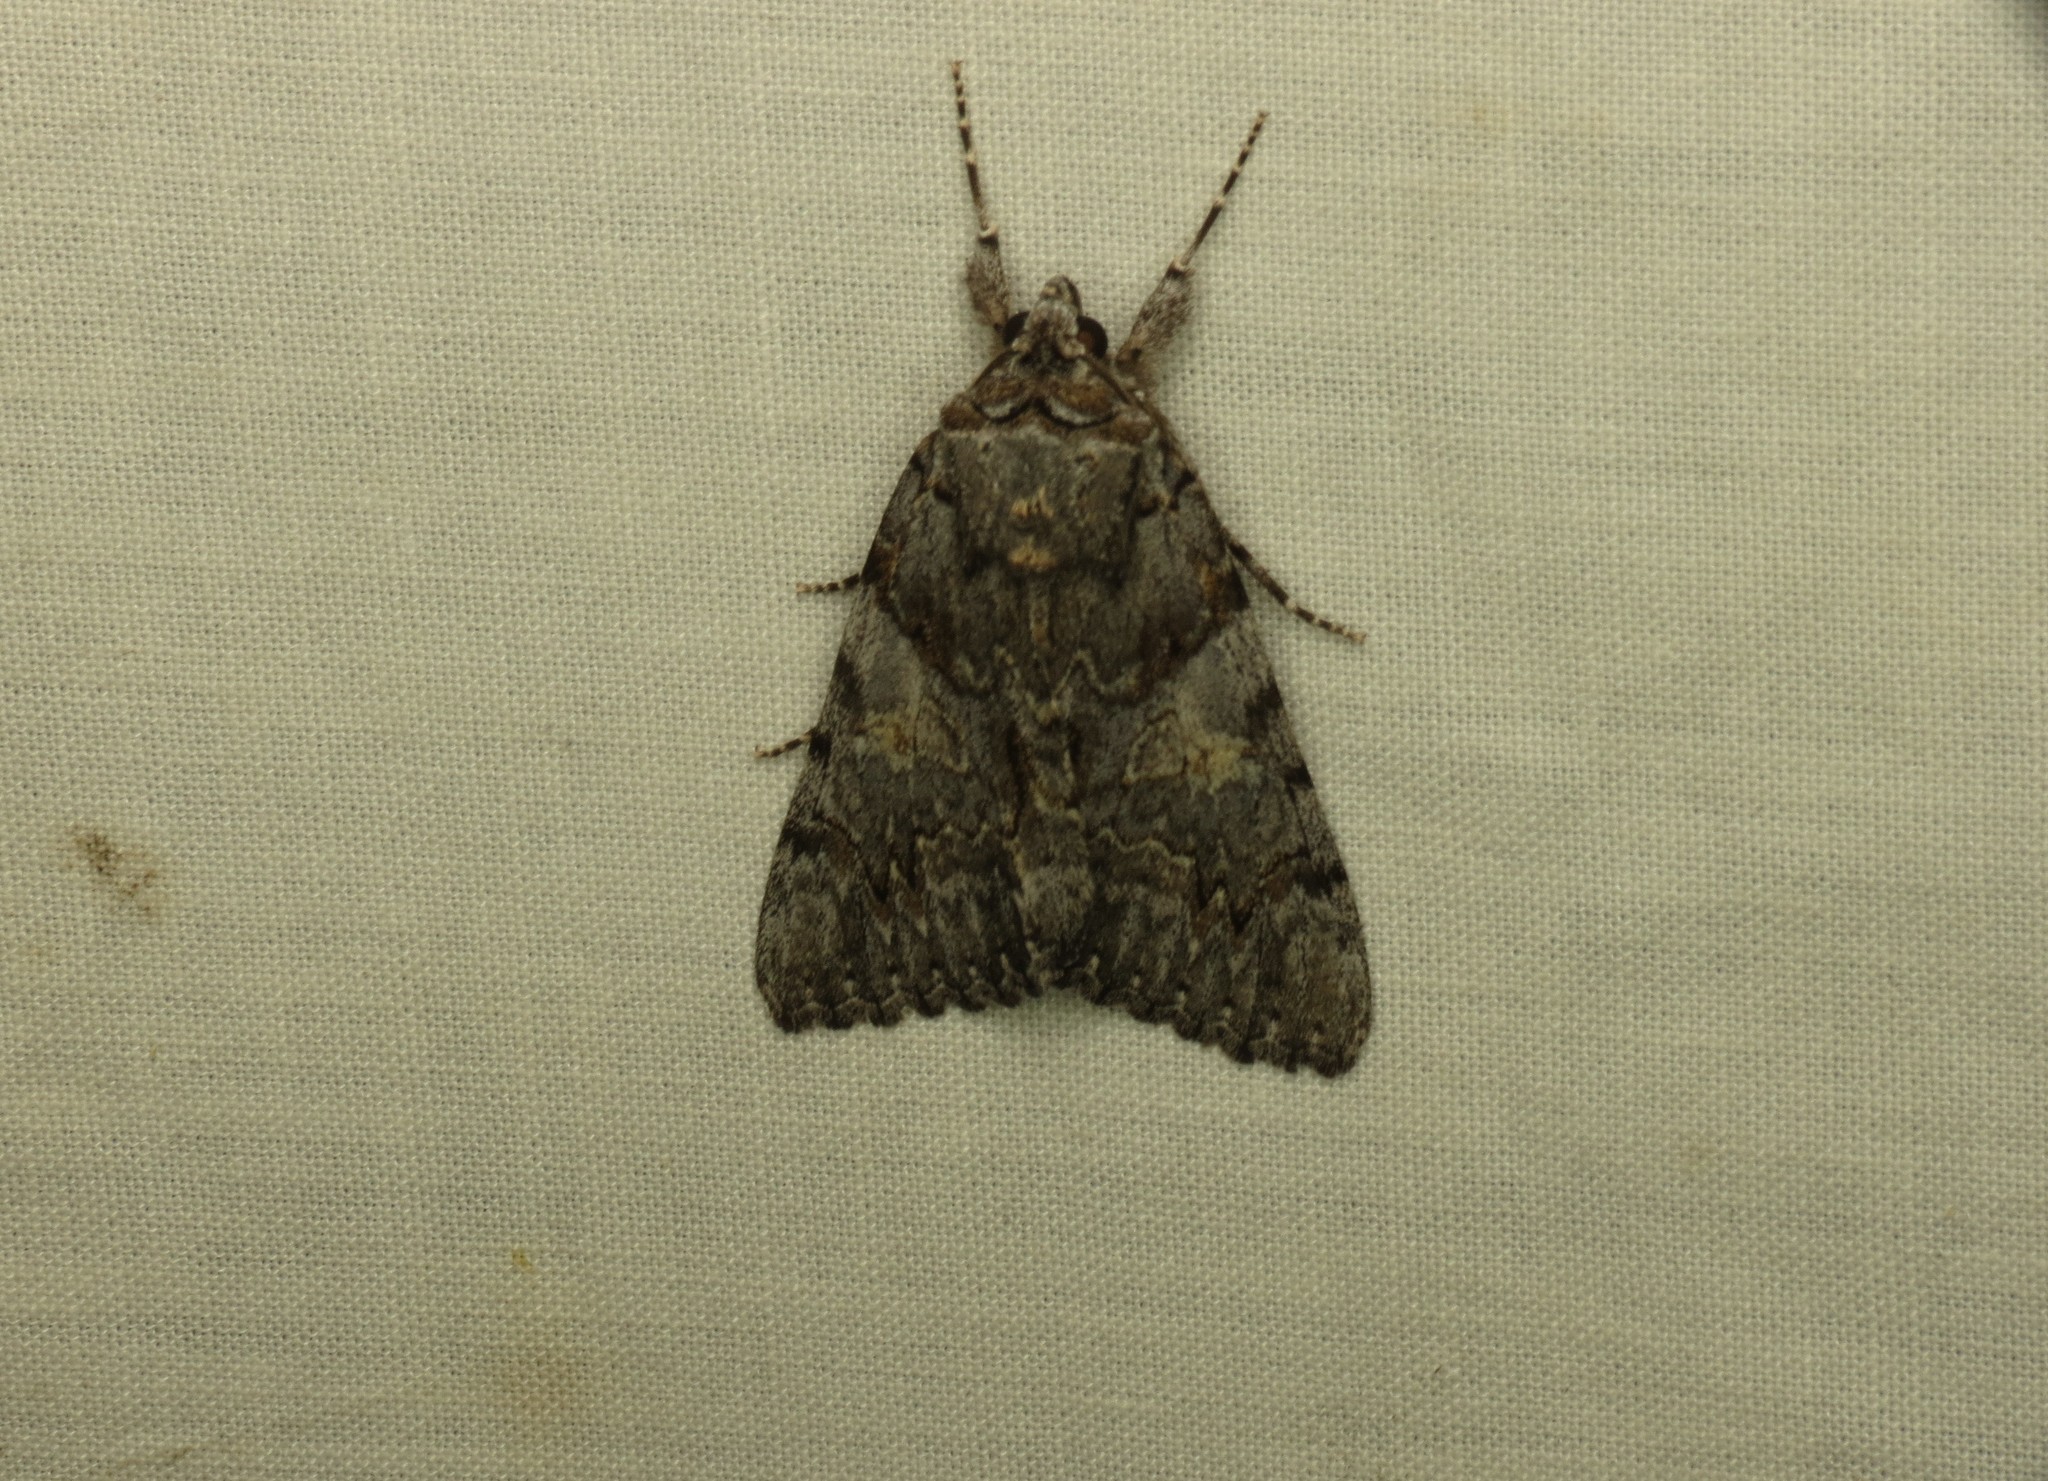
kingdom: Animalia
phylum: Arthropoda
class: Insecta
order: Lepidoptera
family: Erebidae
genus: Catocala
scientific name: Catocala verrilliana
